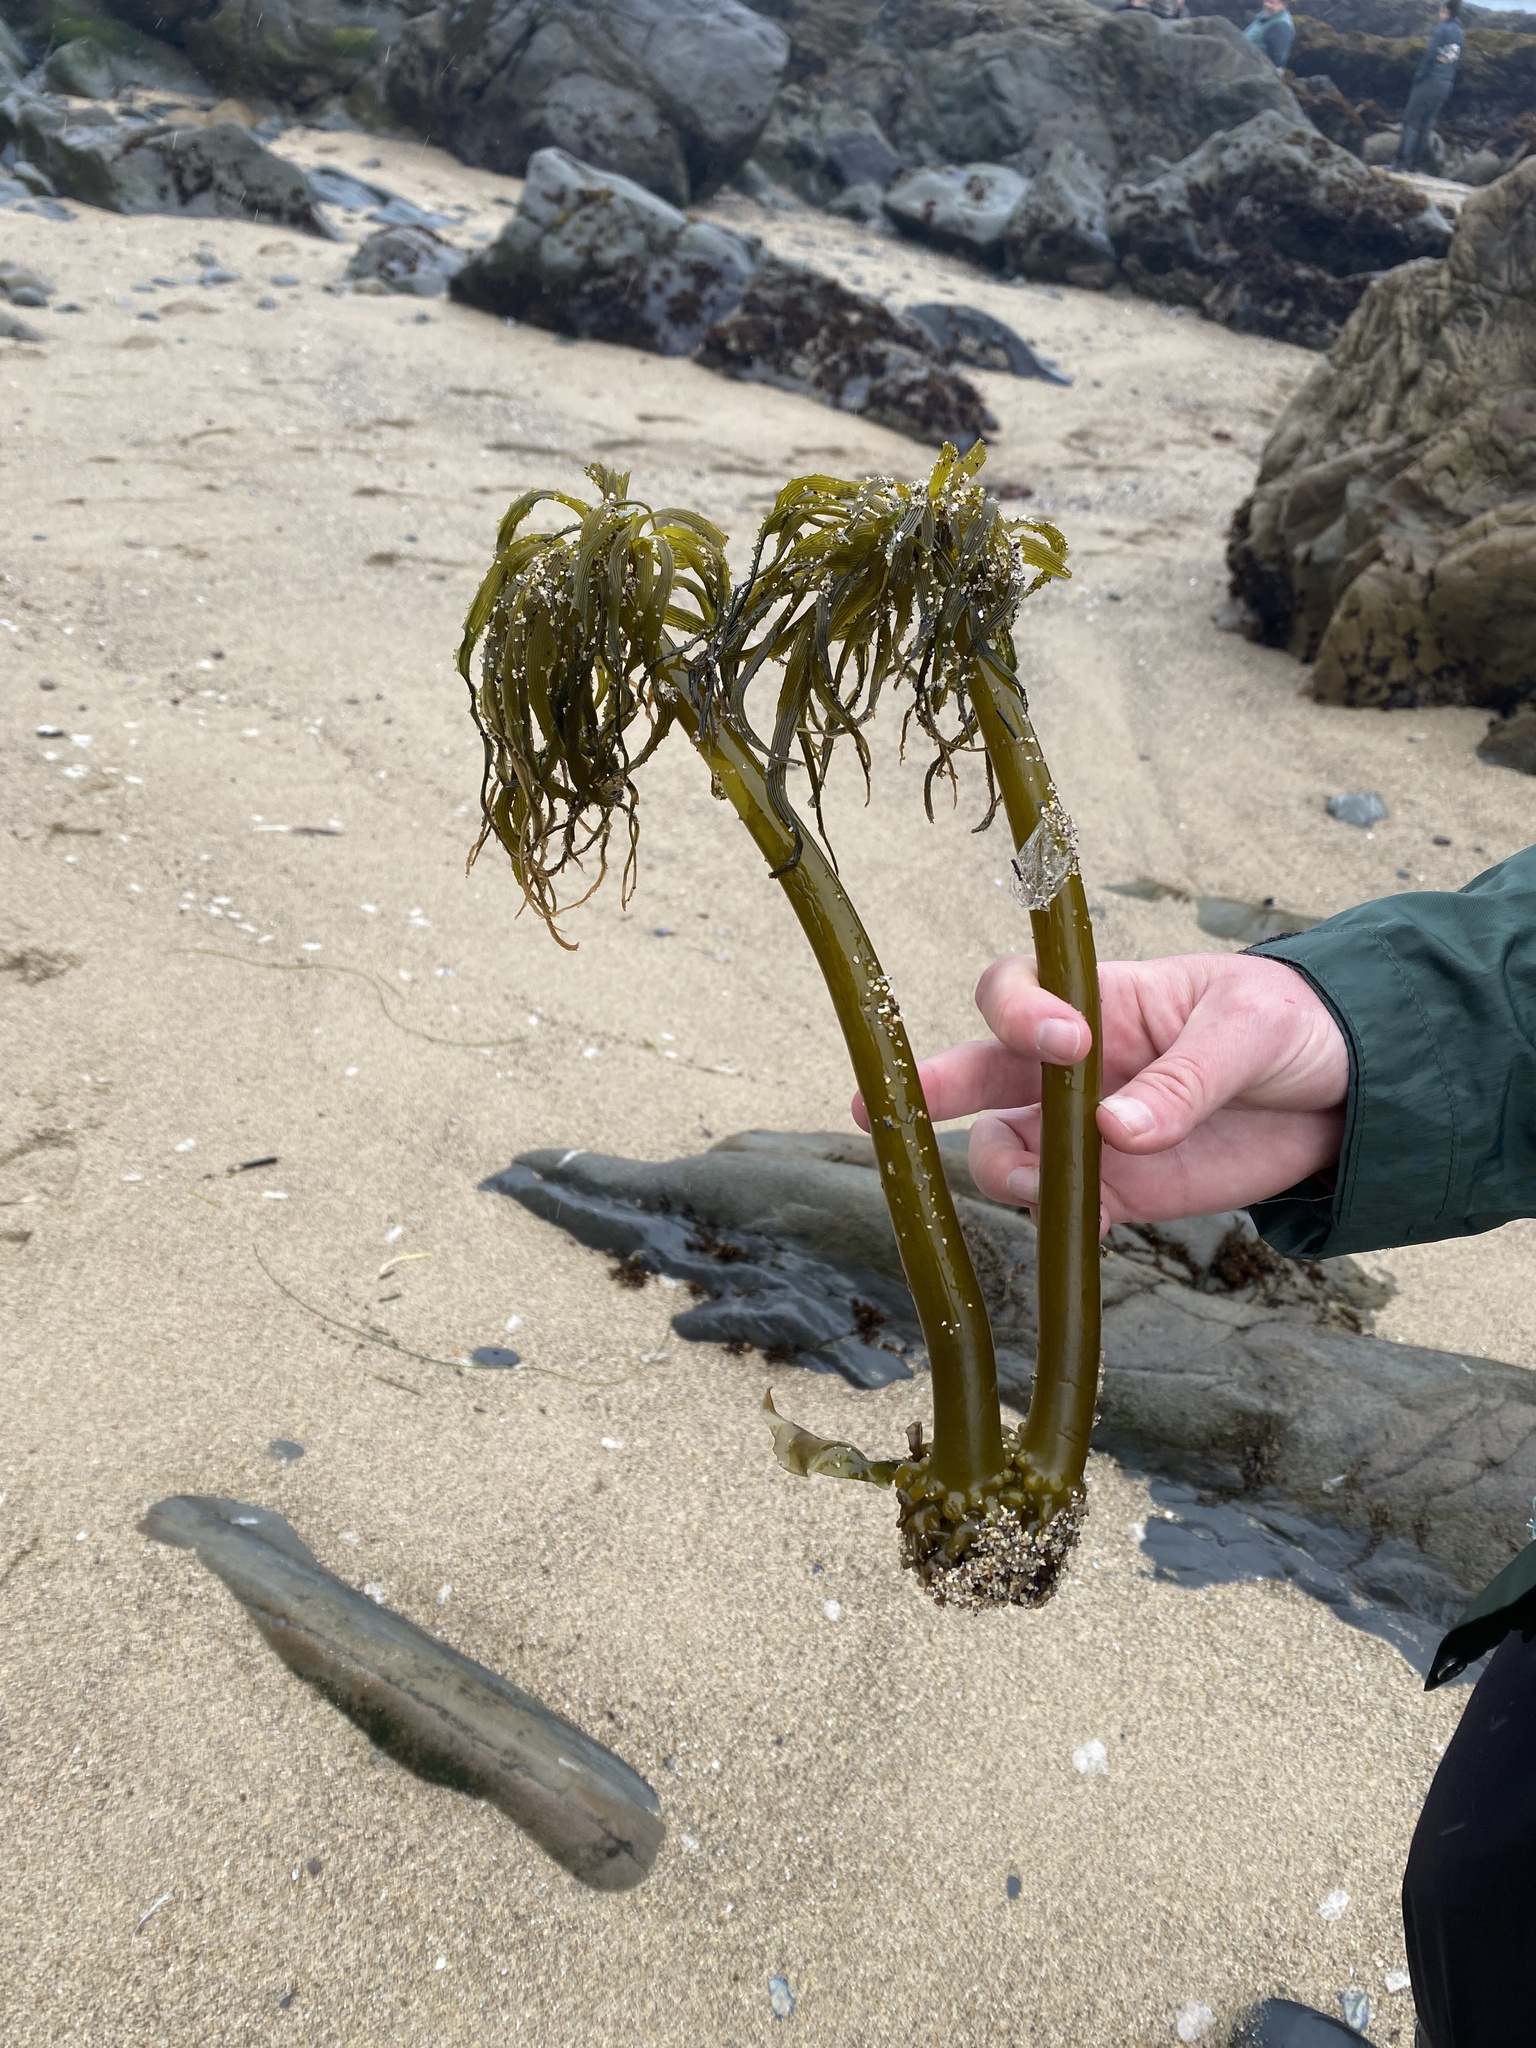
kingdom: Chromista
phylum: Ochrophyta
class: Phaeophyceae
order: Laminariales
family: Laminariaceae
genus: Postelsia
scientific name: Postelsia palmiformis
